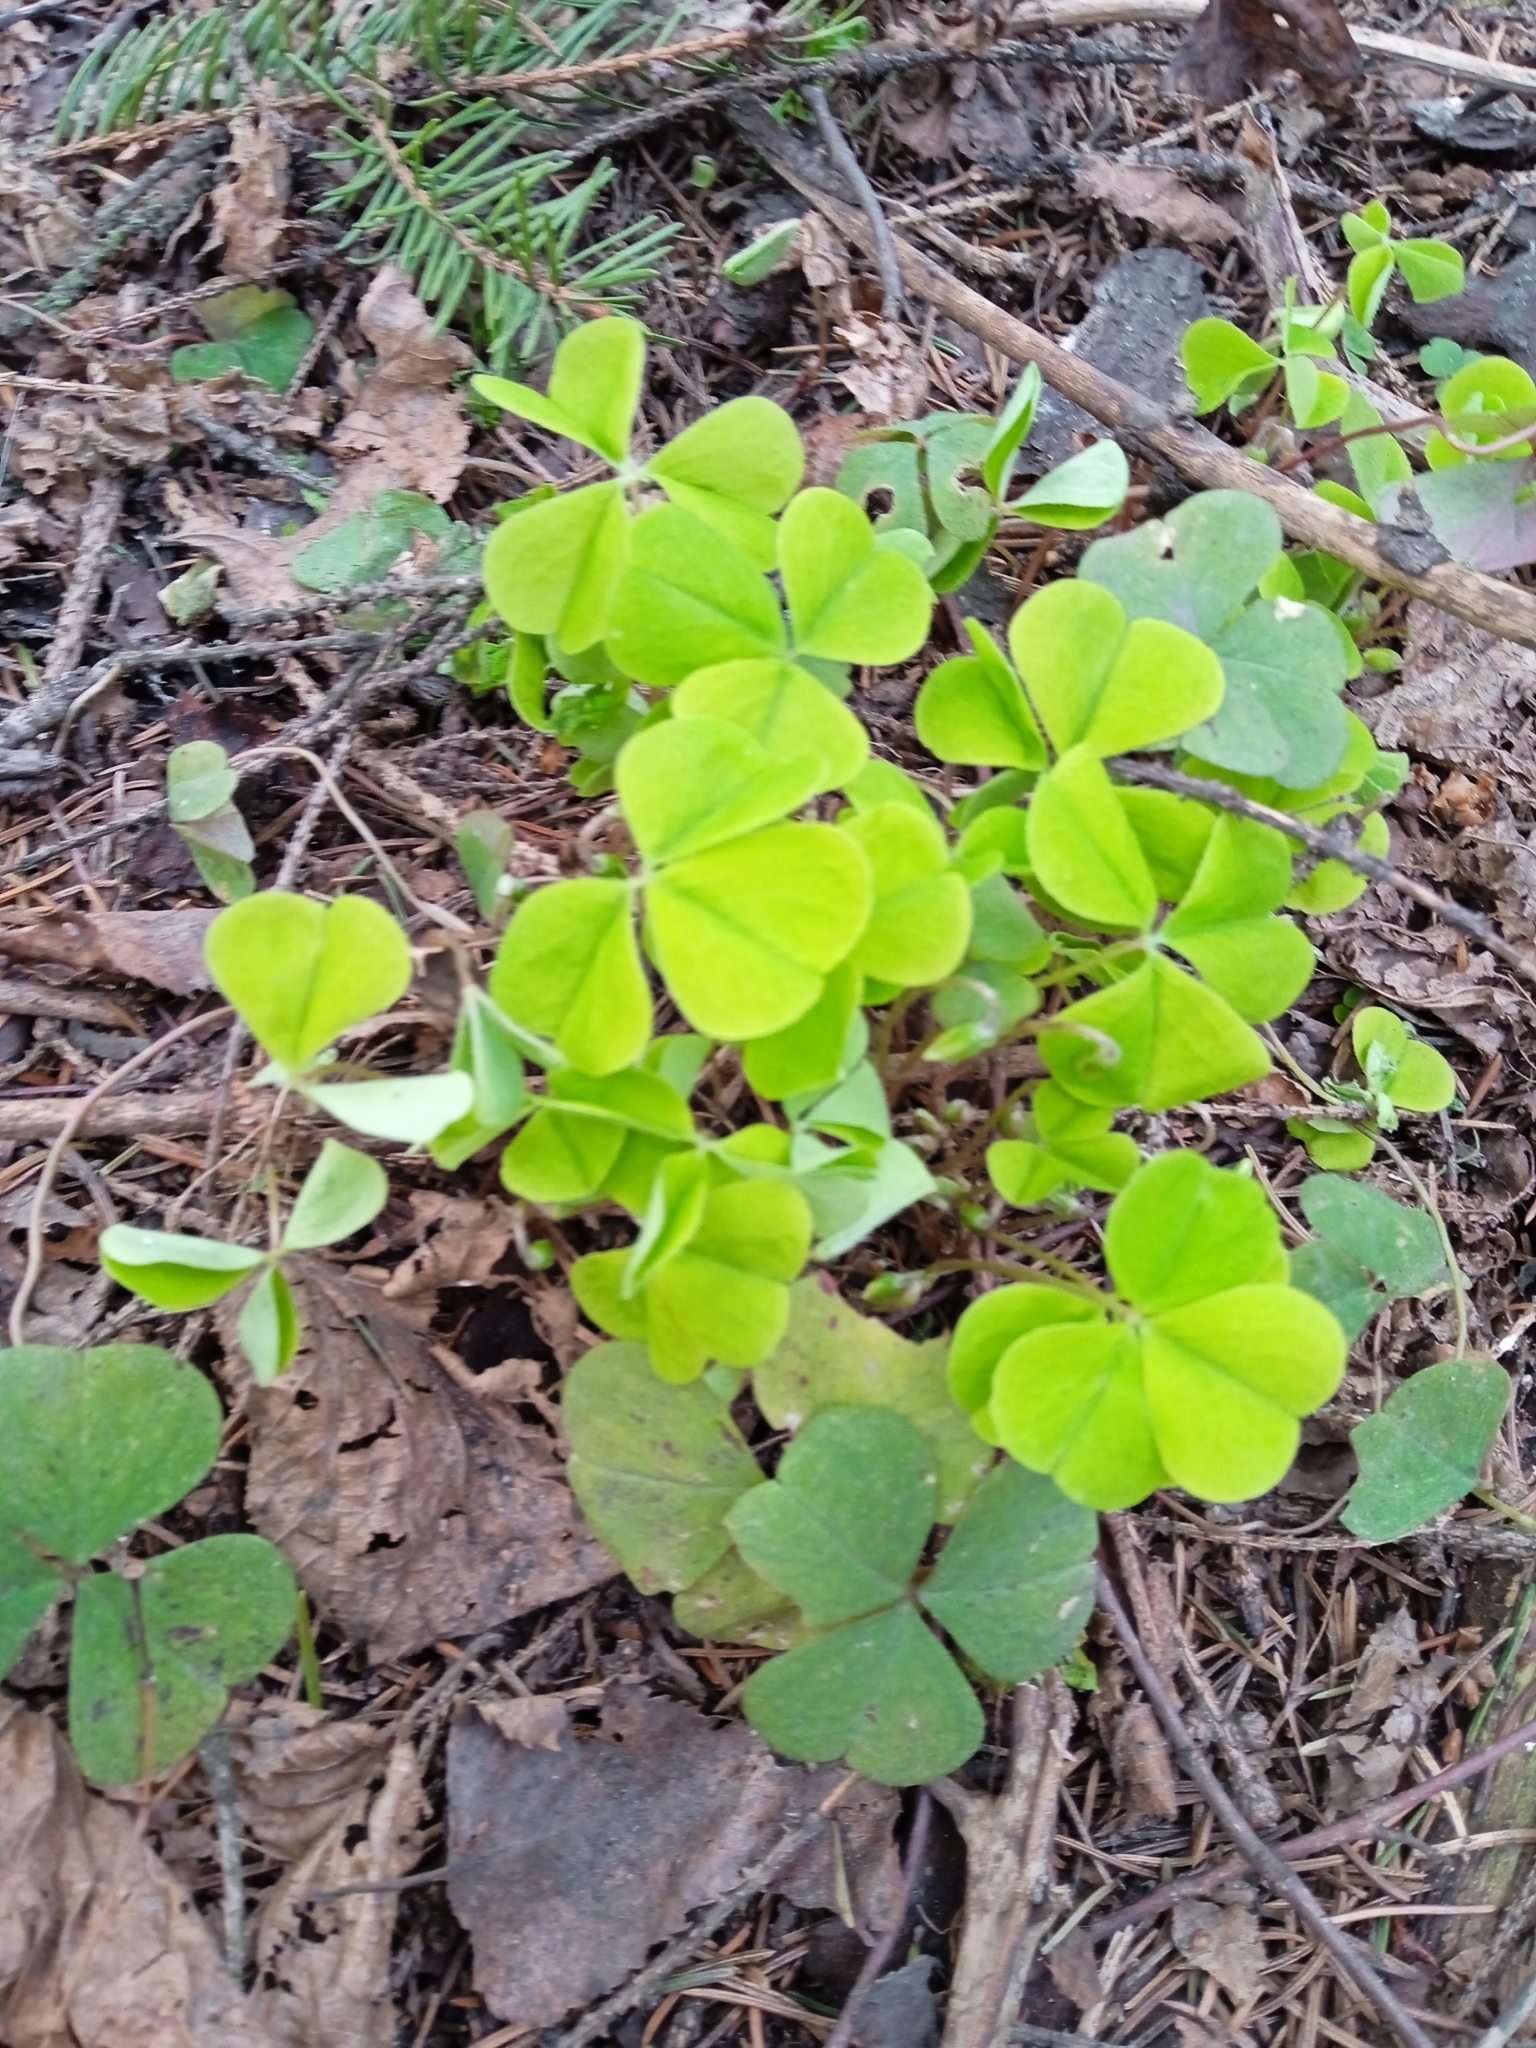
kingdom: Plantae
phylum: Tracheophyta
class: Magnoliopsida
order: Oxalidales
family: Oxalidaceae
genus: Oxalis
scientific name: Oxalis acetosella
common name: Wood-sorrel
